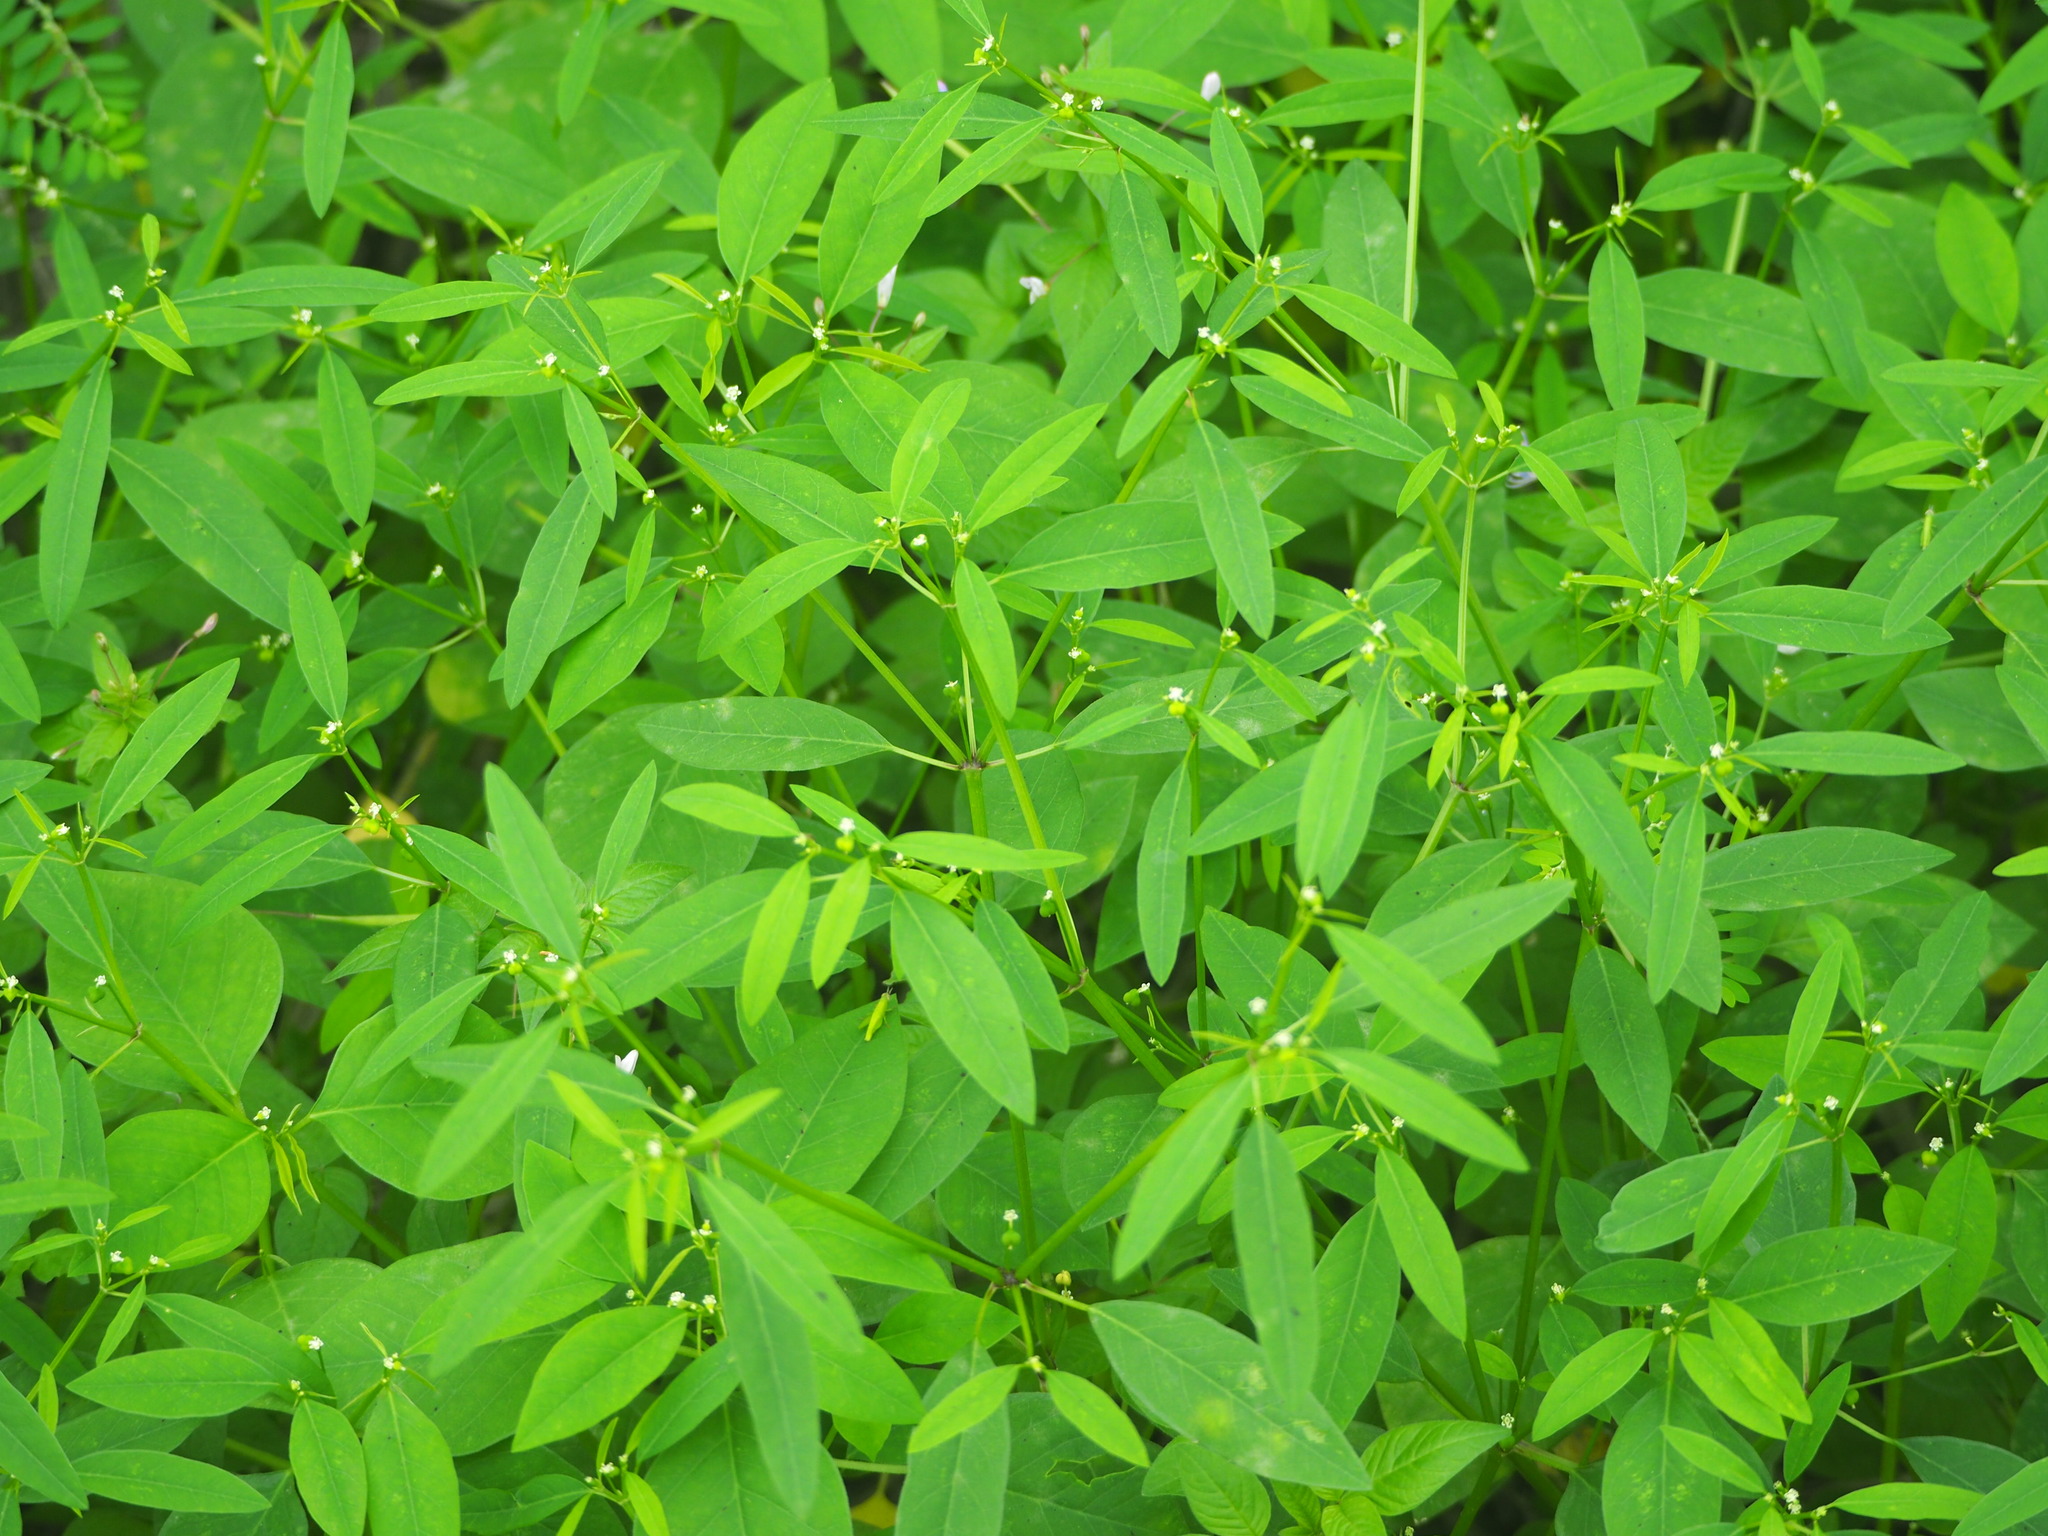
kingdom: Plantae
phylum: Tracheophyta
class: Magnoliopsida
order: Malpighiales
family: Euphorbiaceae
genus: Euphorbia
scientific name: Euphorbia graminea
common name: Grassleaf spurge
